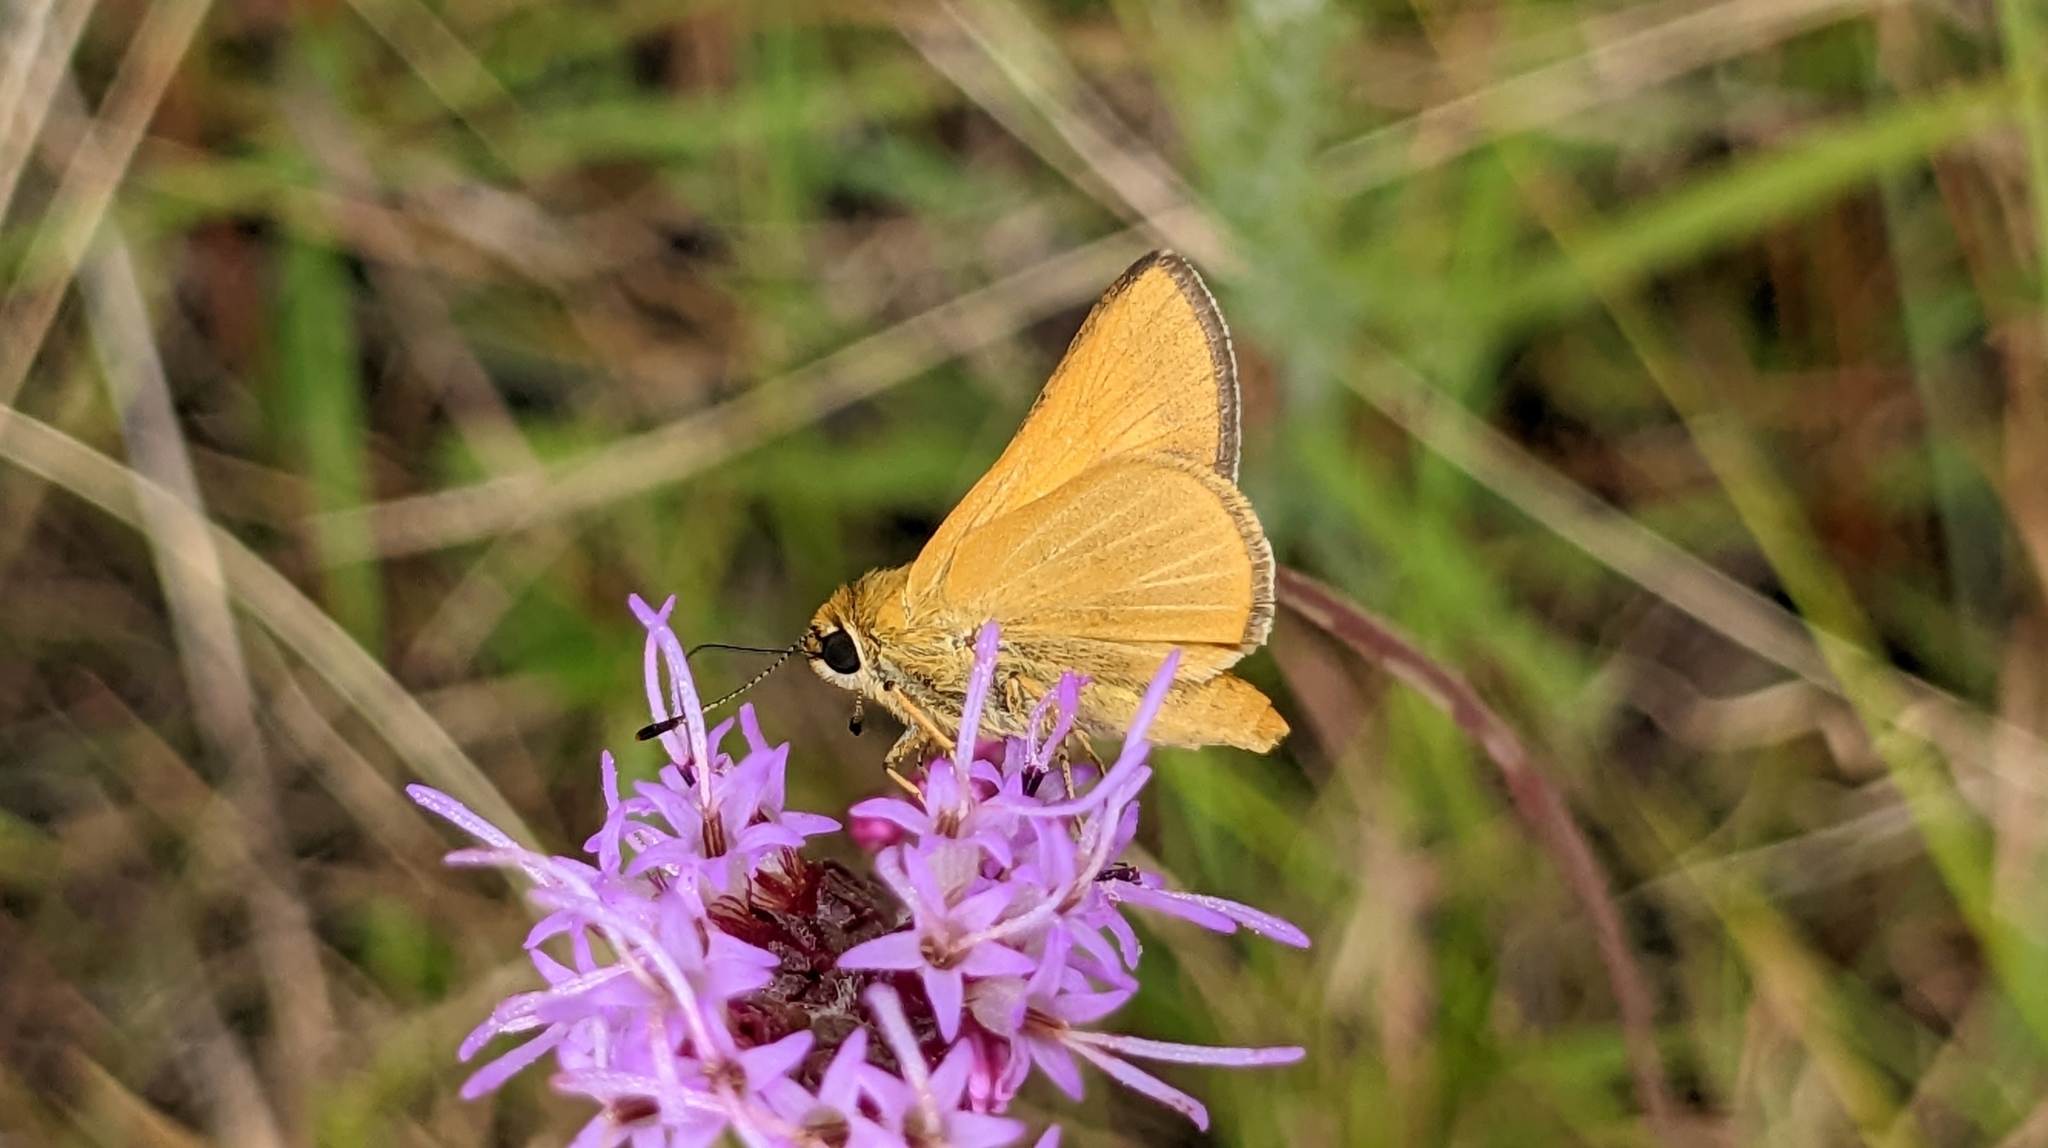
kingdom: Animalia
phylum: Arthropoda
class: Insecta
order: Lepidoptera
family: Hesperiidae
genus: Atrytone
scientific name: Atrytone arogos
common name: Arogos skipper
